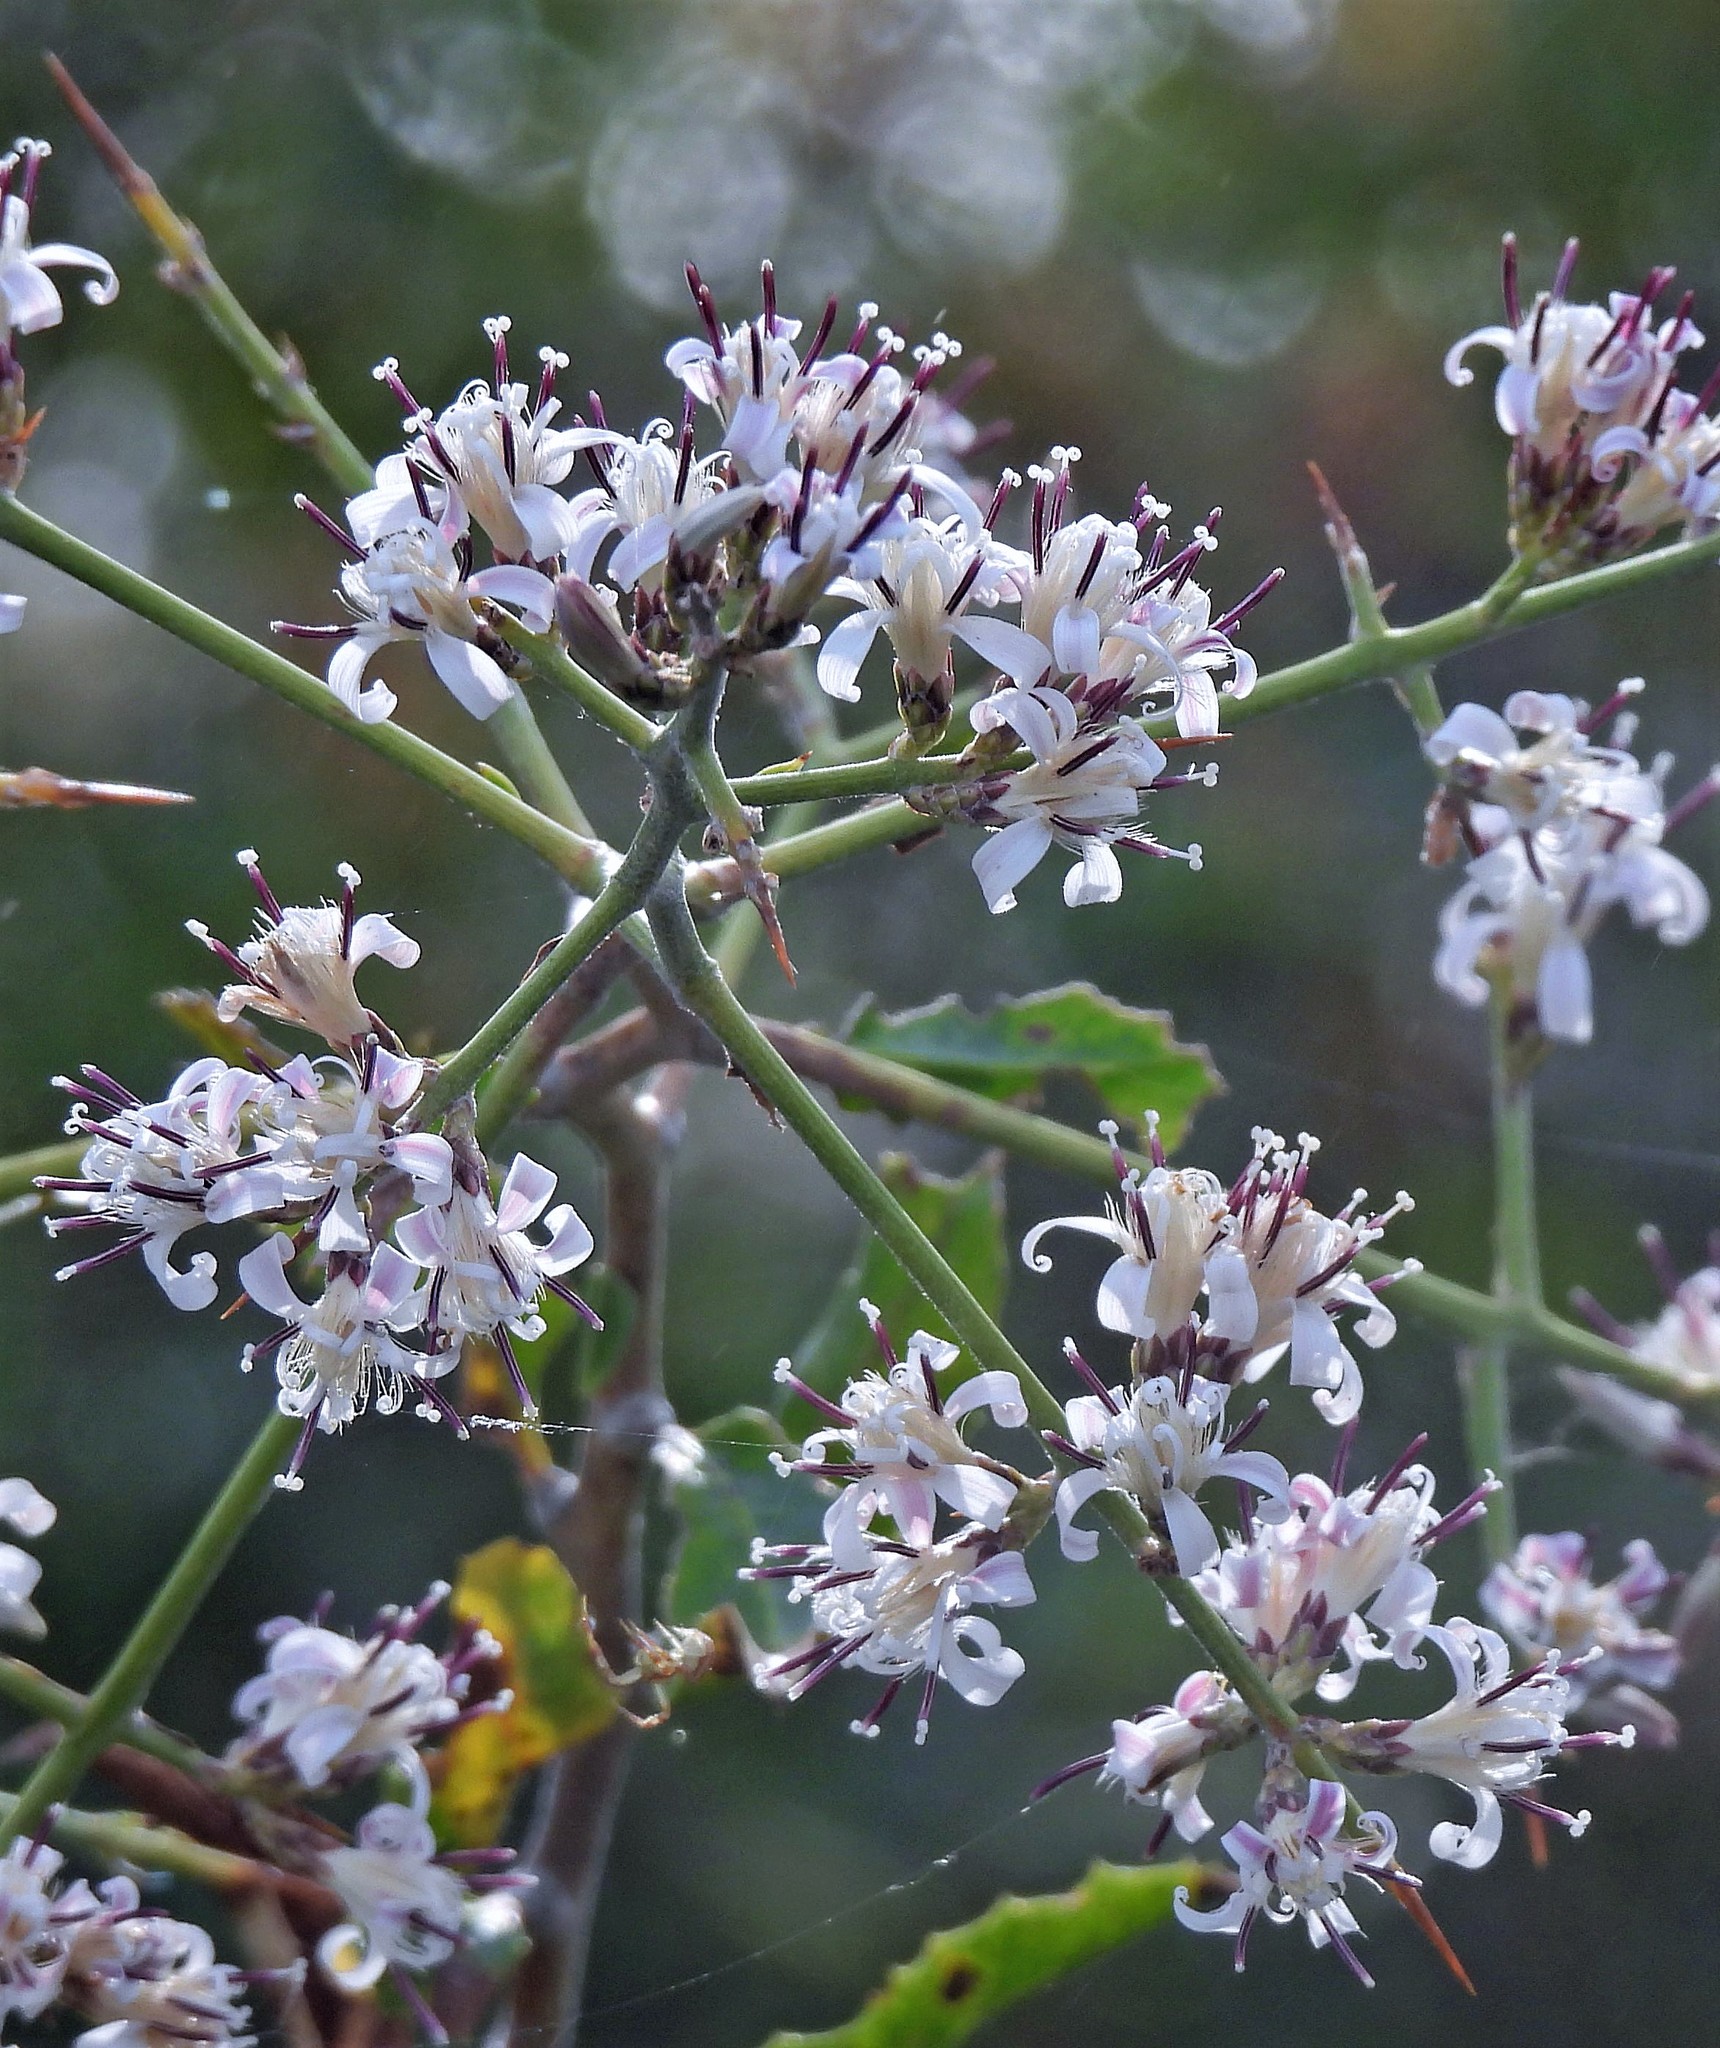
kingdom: Plantae
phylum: Tracheophyta
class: Magnoliopsida
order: Asterales
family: Asteraceae
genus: Proustia
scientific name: Proustia cuneifolia
